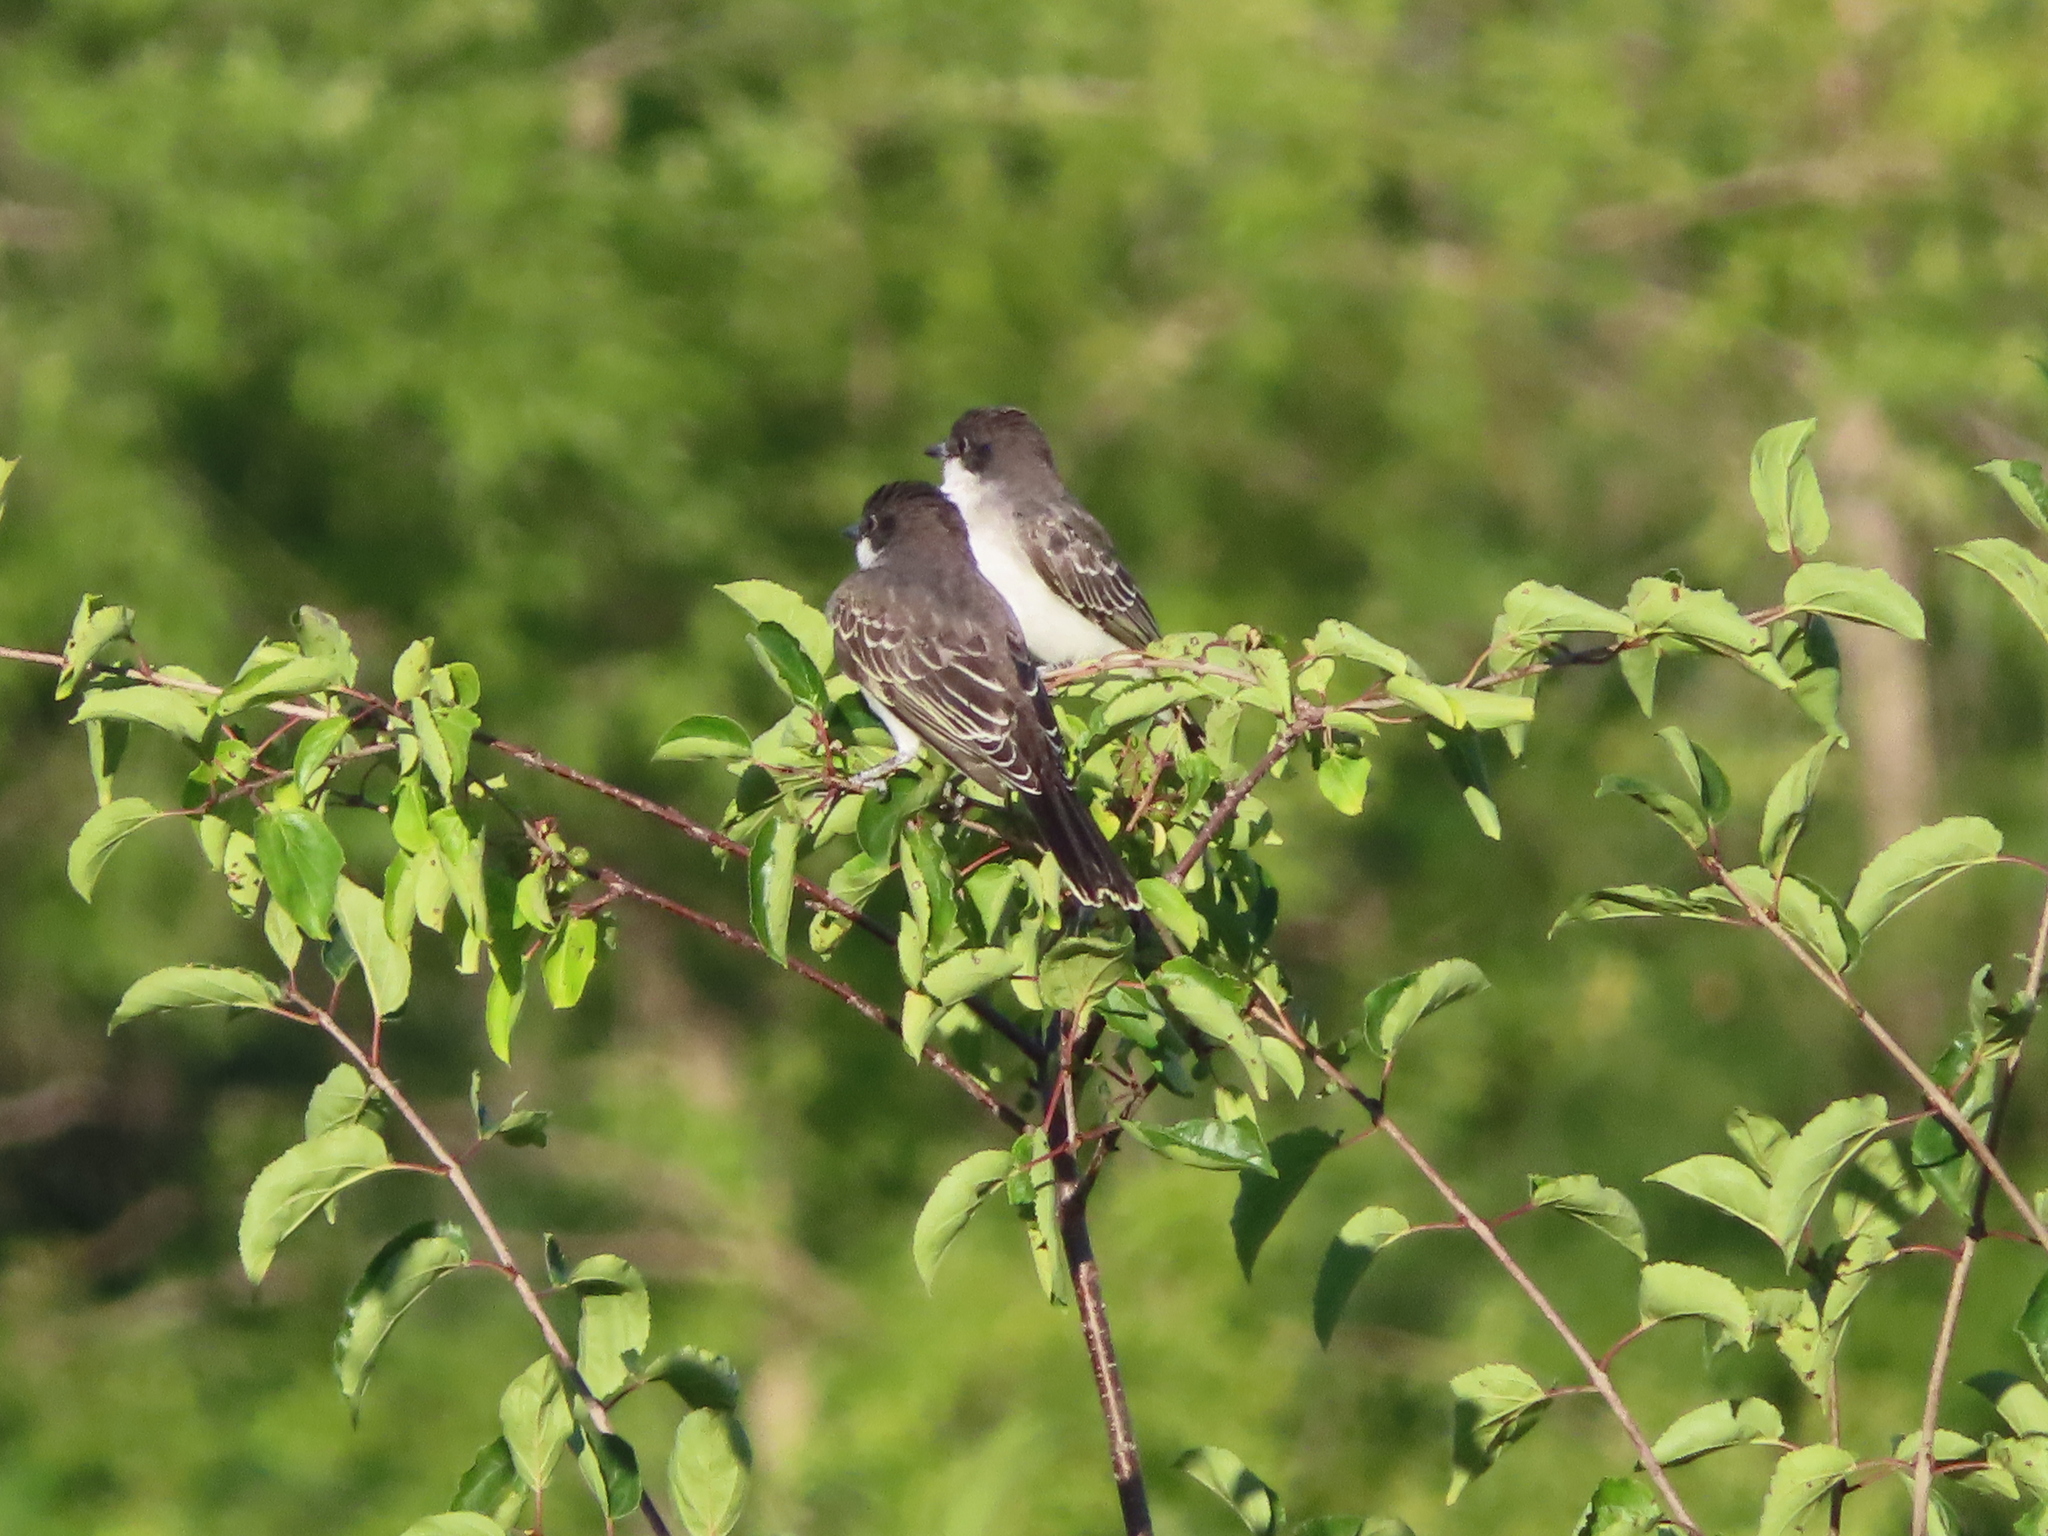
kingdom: Animalia
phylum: Chordata
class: Aves
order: Passeriformes
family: Tyrannidae
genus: Tyrannus
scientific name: Tyrannus tyrannus
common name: Eastern kingbird
